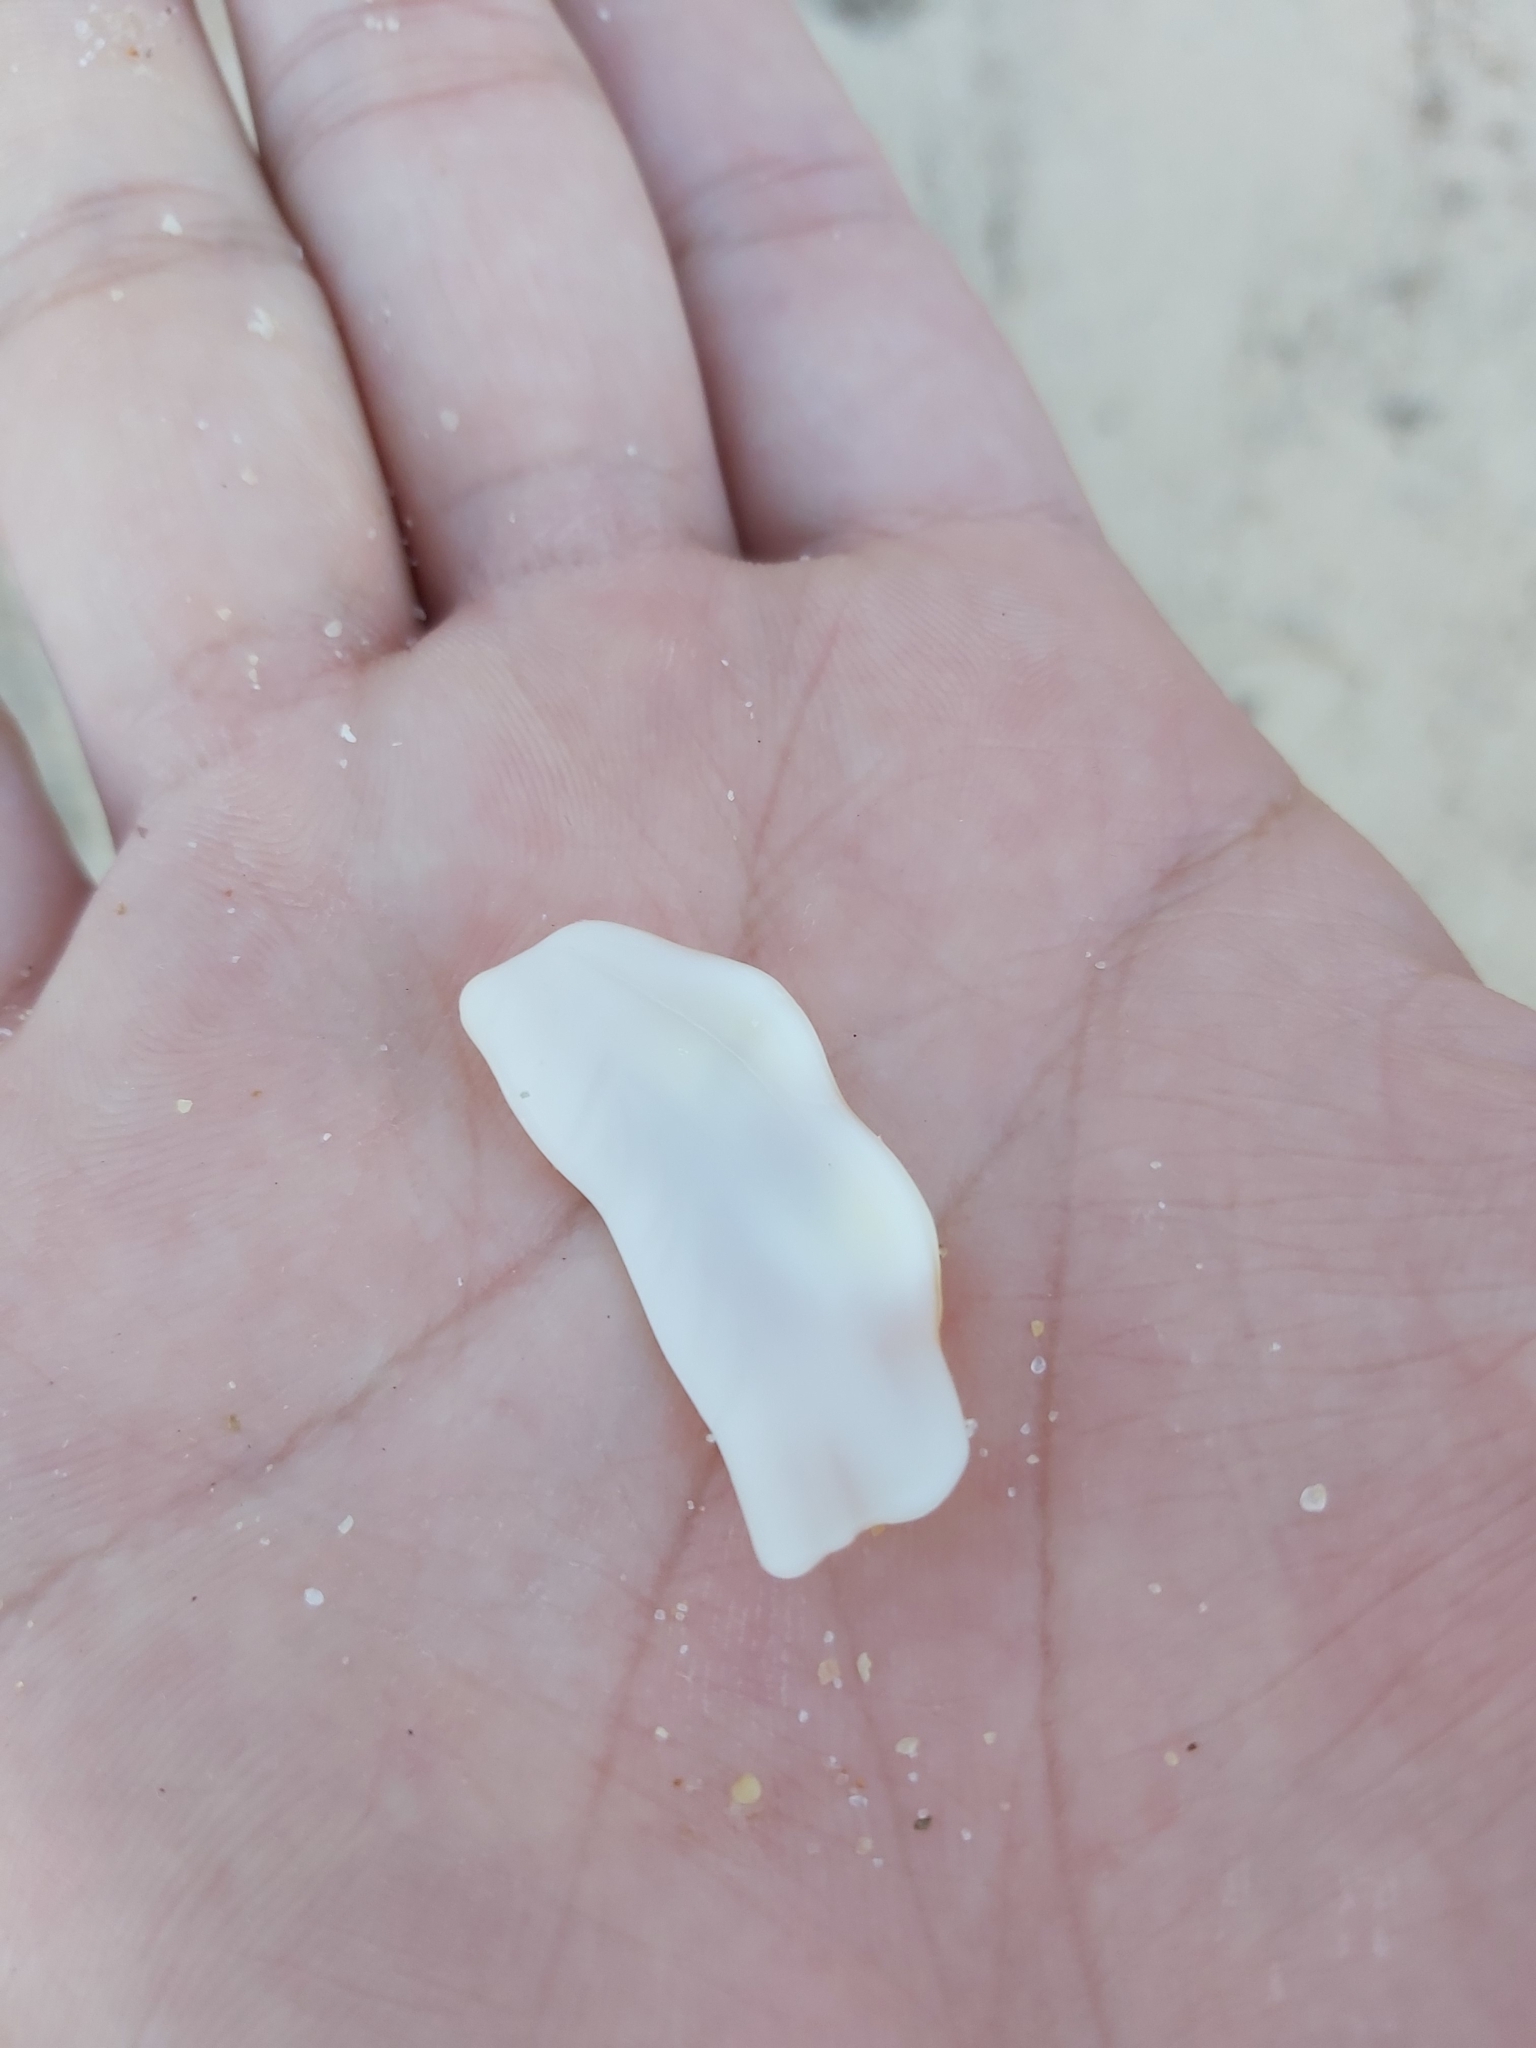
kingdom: Animalia
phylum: Mollusca
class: Gastropoda
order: Littorinimorpha
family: Cymatiidae
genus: Cabestana
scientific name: Cabestana spengleri
